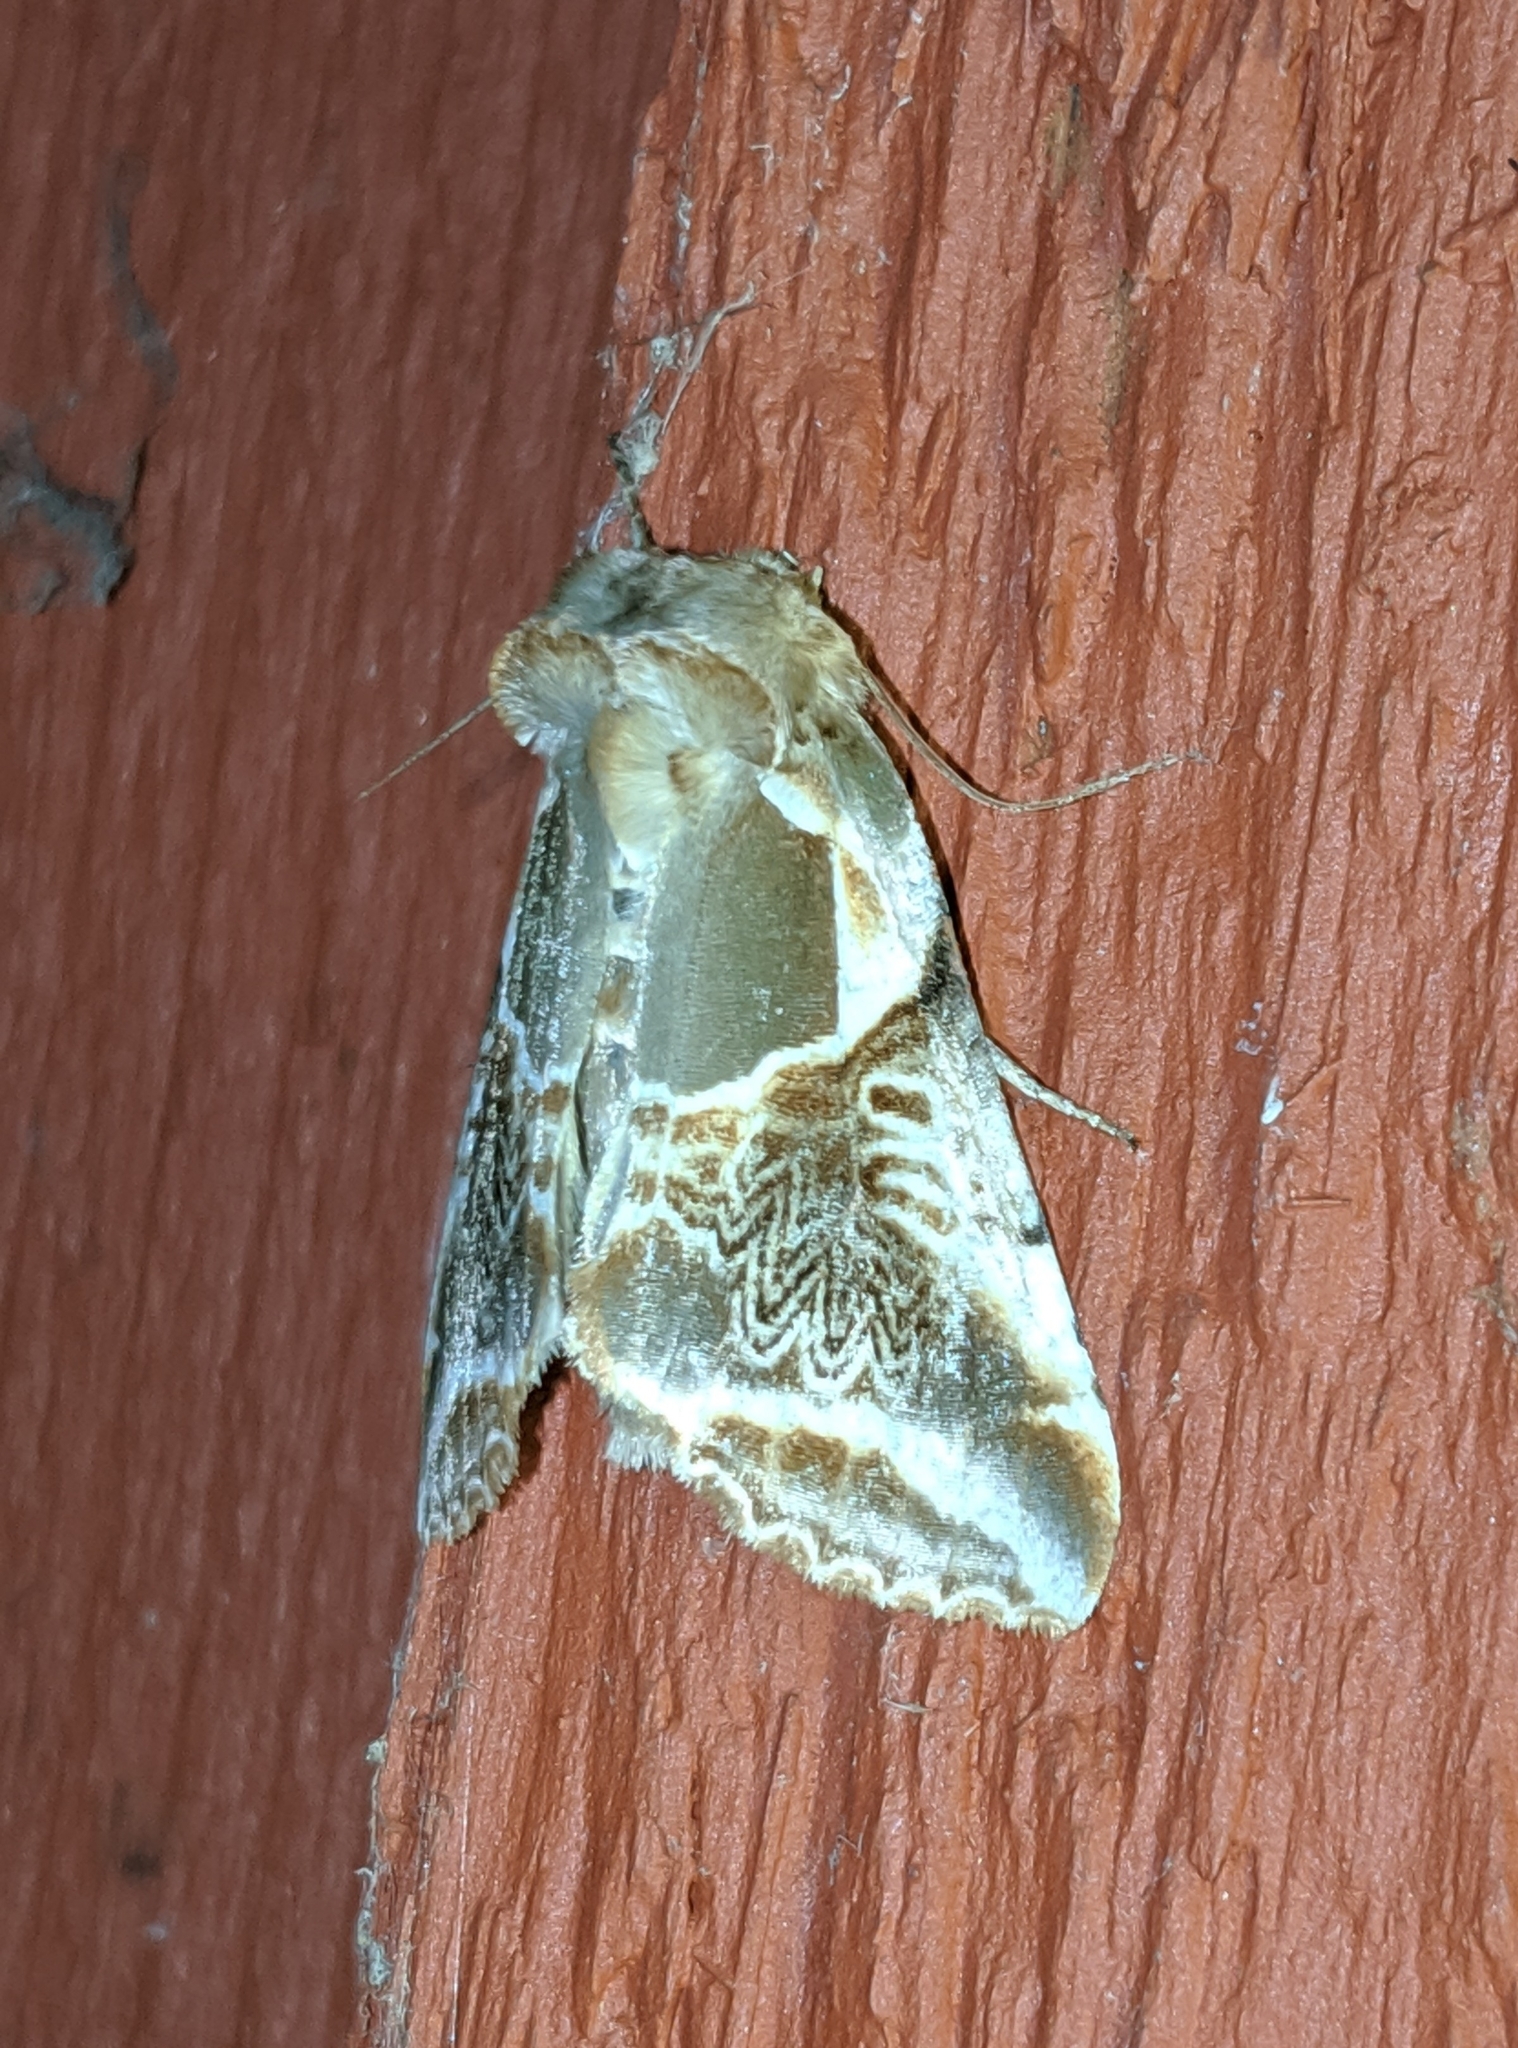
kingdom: Animalia
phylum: Arthropoda
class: Insecta
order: Lepidoptera
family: Drepanidae
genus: Habrosyne
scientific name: Habrosyne scripta
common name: Lettered habrosyne moth
